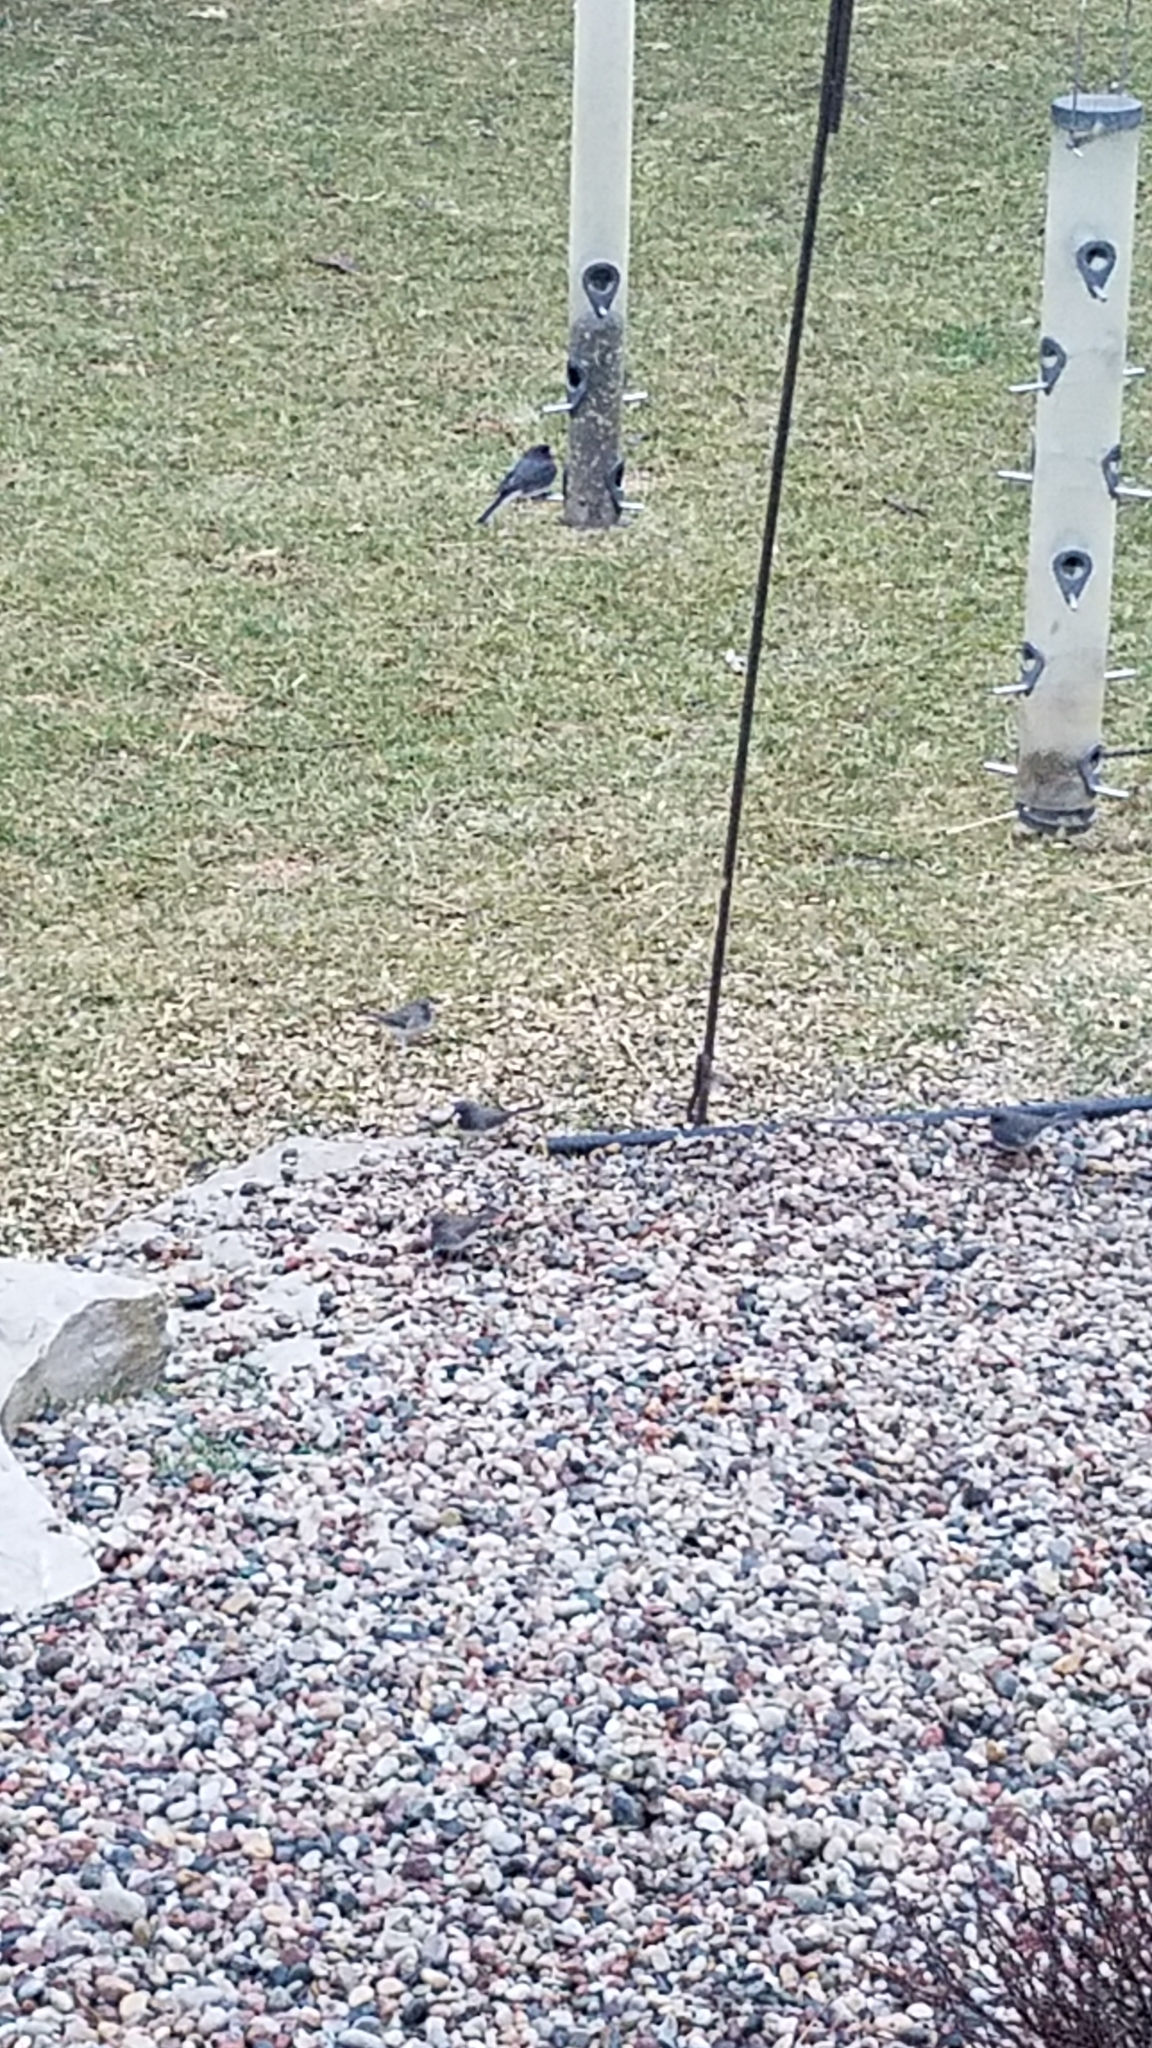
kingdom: Animalia
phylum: Chordata
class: Aves
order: Passeriformes
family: Passerellidae
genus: Junco
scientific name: Junco hyemalis
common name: Dark-eyed junco
